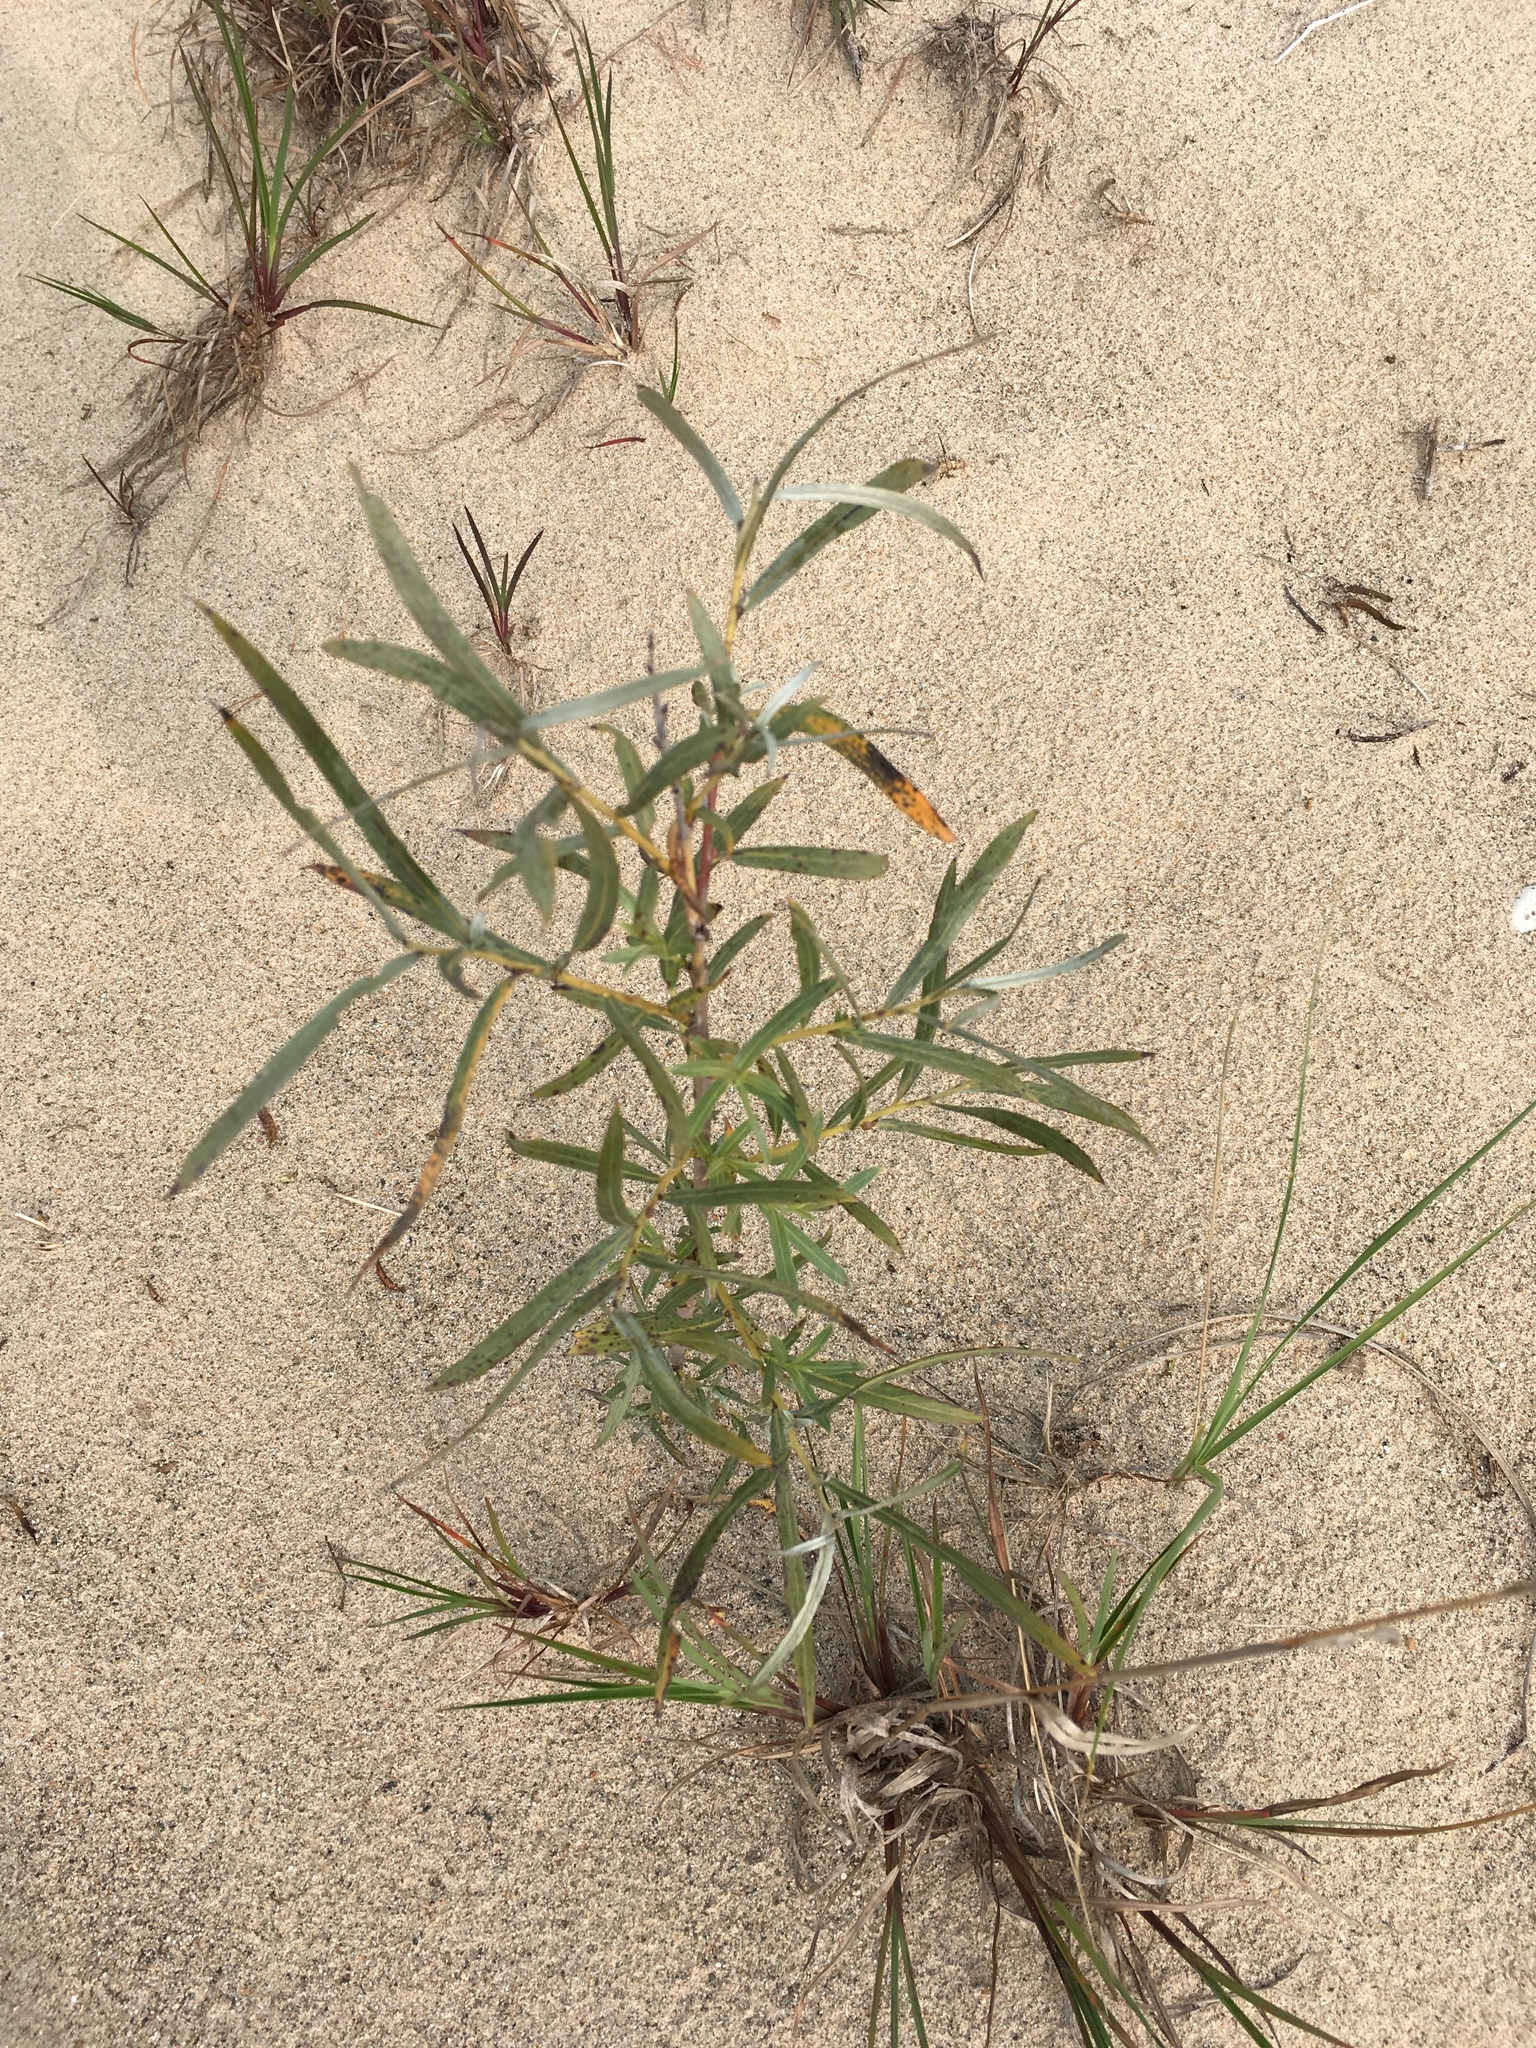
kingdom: Plantae
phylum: Tracheophyta
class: Magnoliopsida
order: Malpighiales
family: Salicaceae
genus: Salix
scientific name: Salix interior
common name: Sandbar willow
